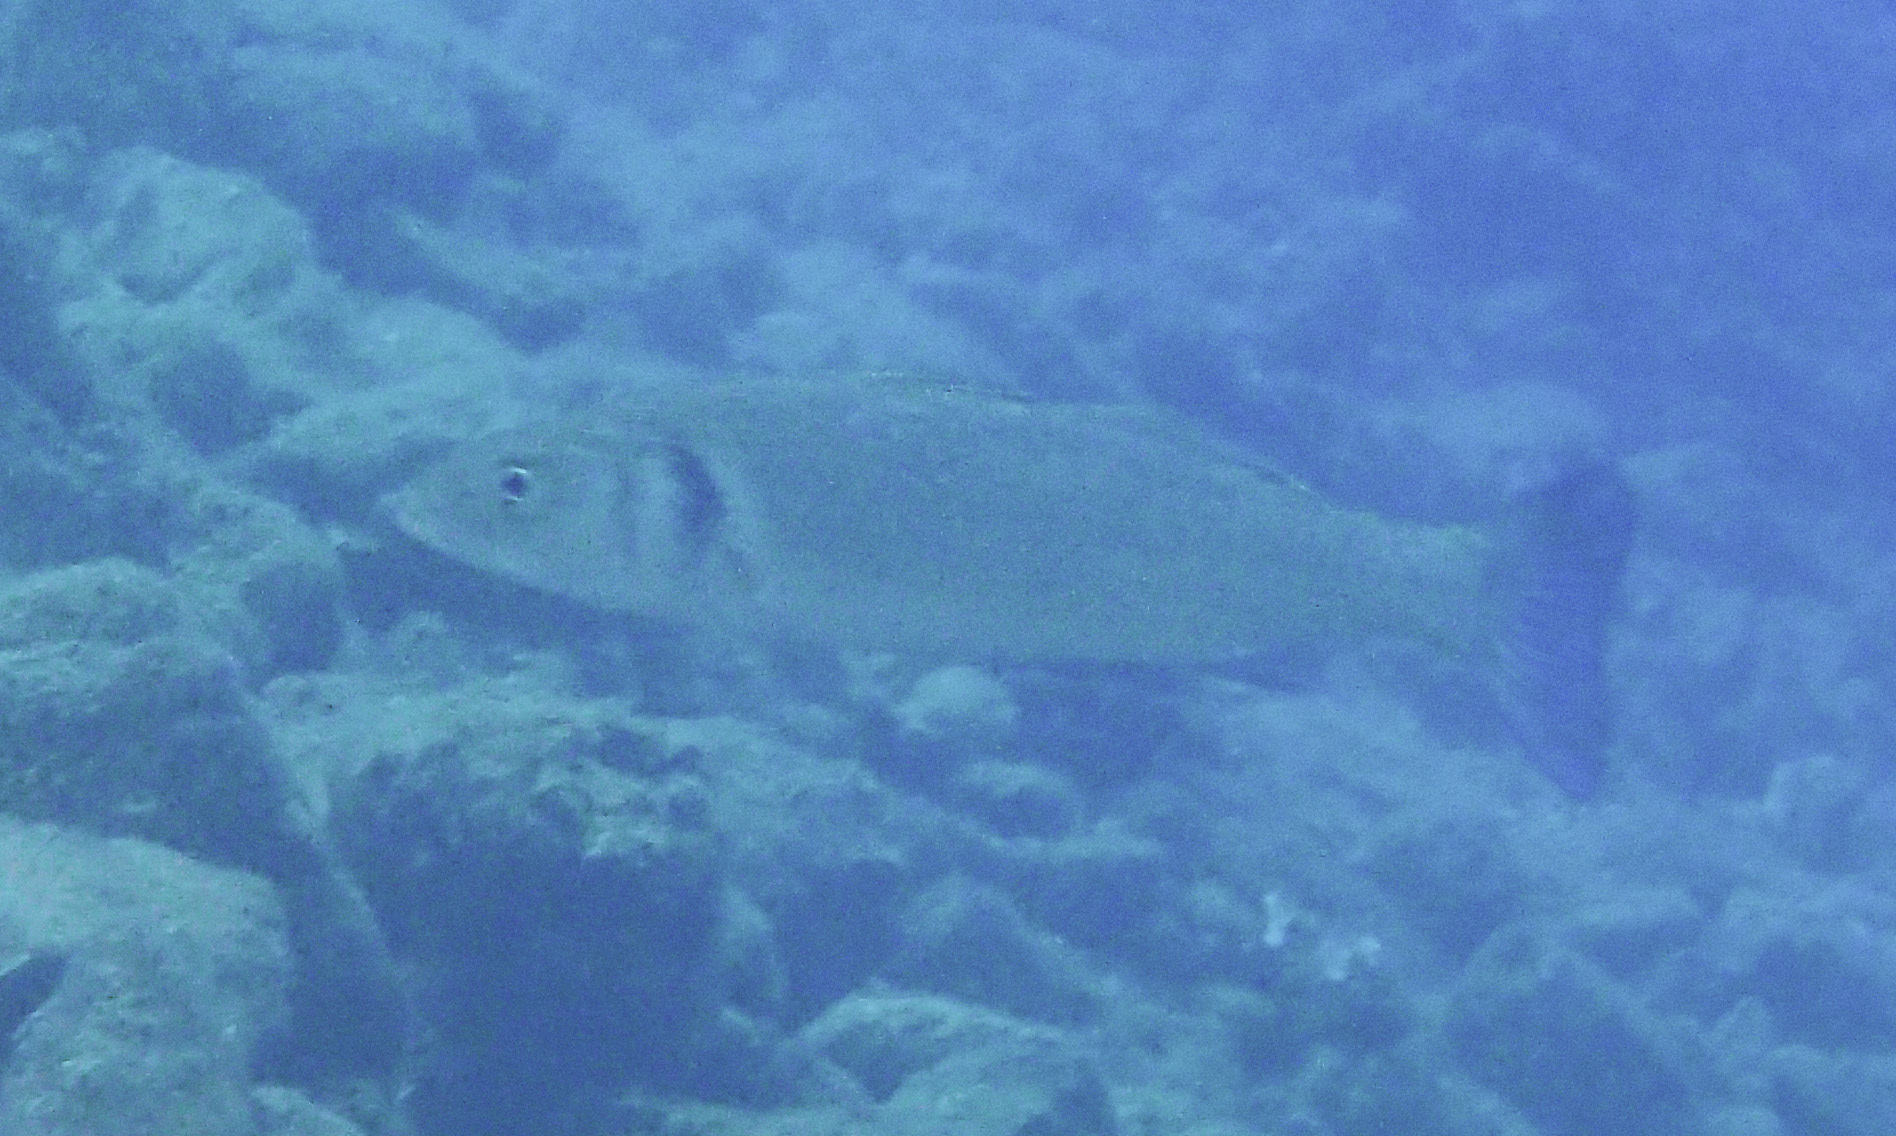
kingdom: Animalia
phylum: Chordata
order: Perciformes
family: Moronidae
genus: Dicentrarchus
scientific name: Dicentrarchus labrax
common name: European seabass
